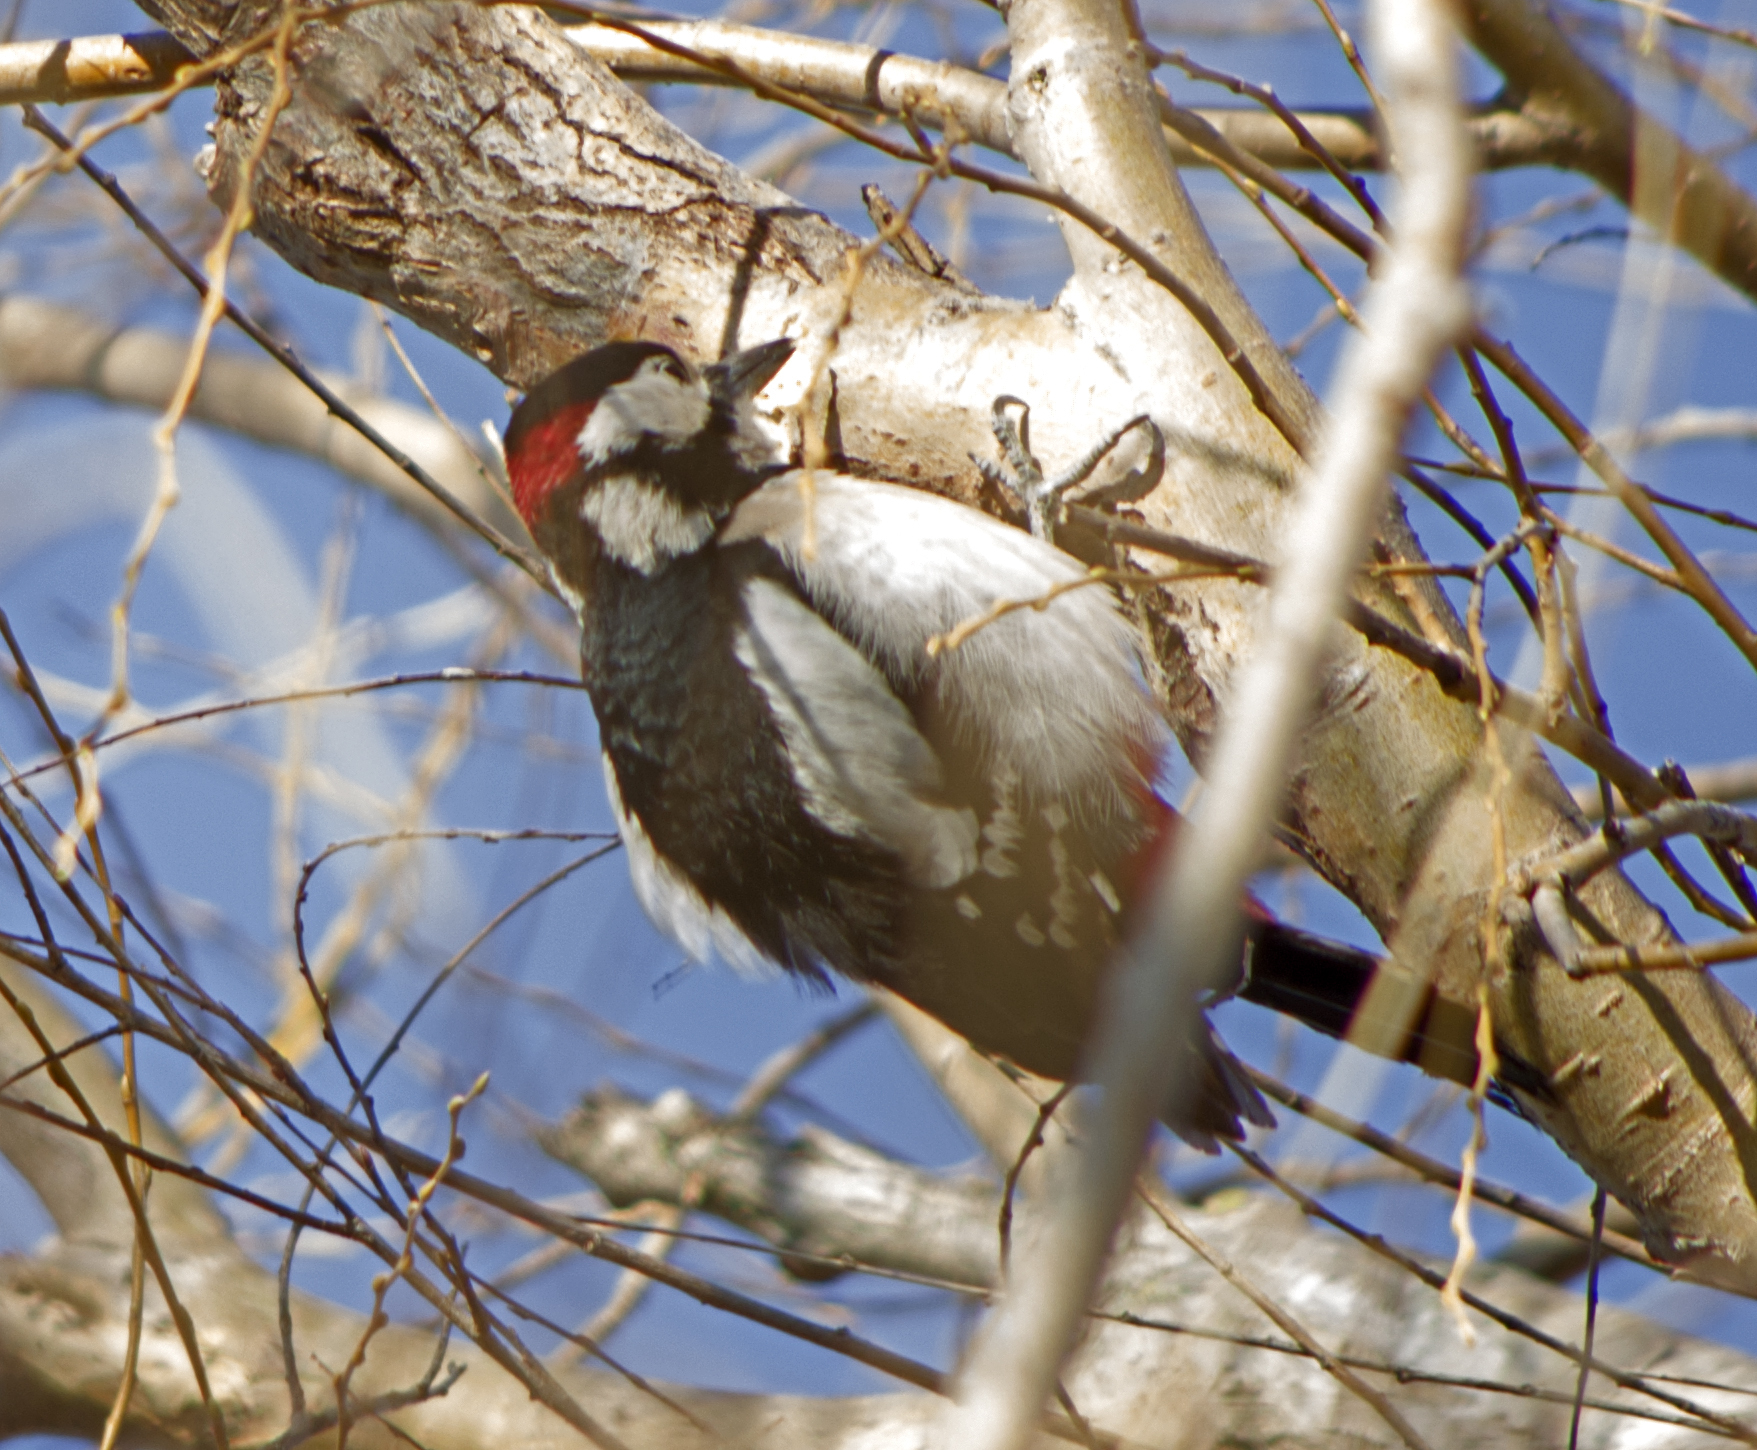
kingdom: Animalia
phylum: Chordata
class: Aves
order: Piciformes
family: Picidae
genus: Dendrocopos
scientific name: Dendrocopos major
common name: Great spotted woodpecker
